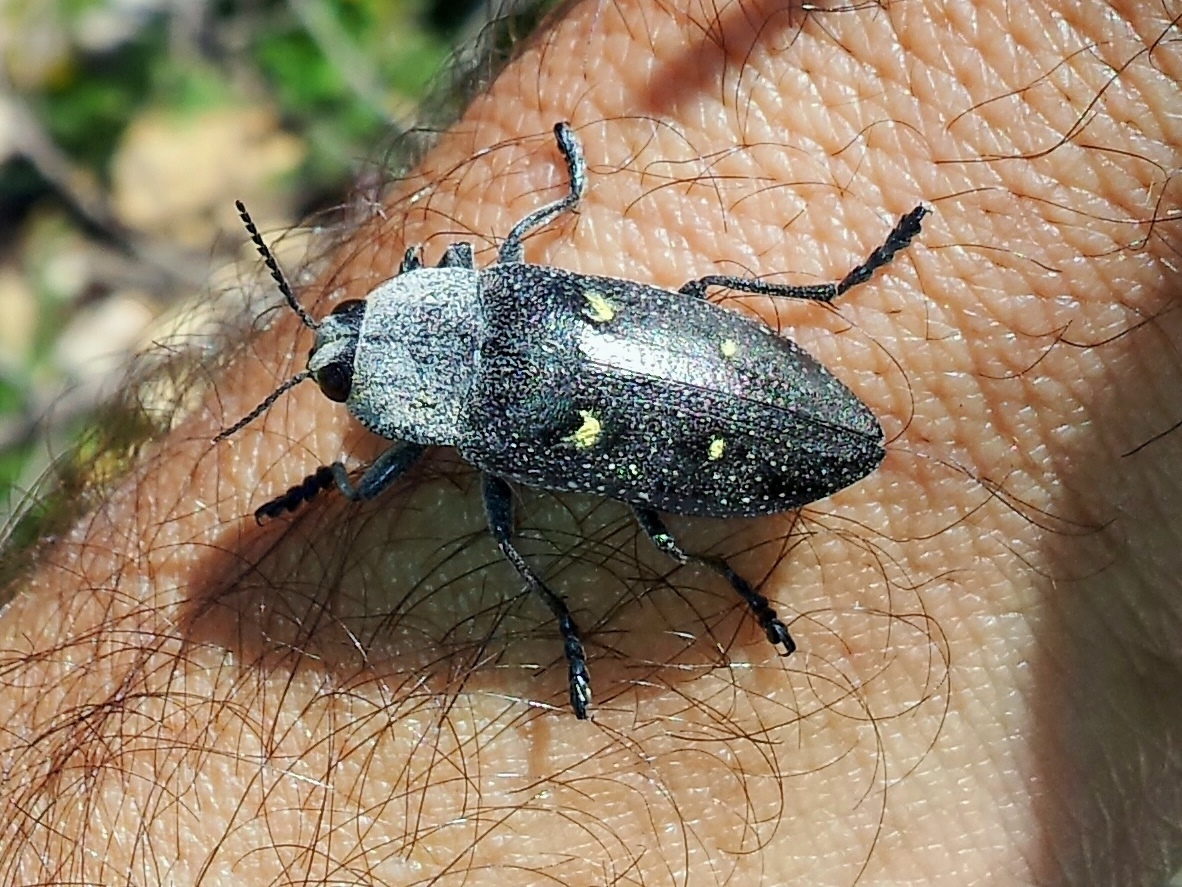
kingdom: Animalia
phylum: Arthropoda
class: Insecta
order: Coleoptera
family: Buprestidae
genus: Chalcophorella
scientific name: Chalcophorella stigmatica
